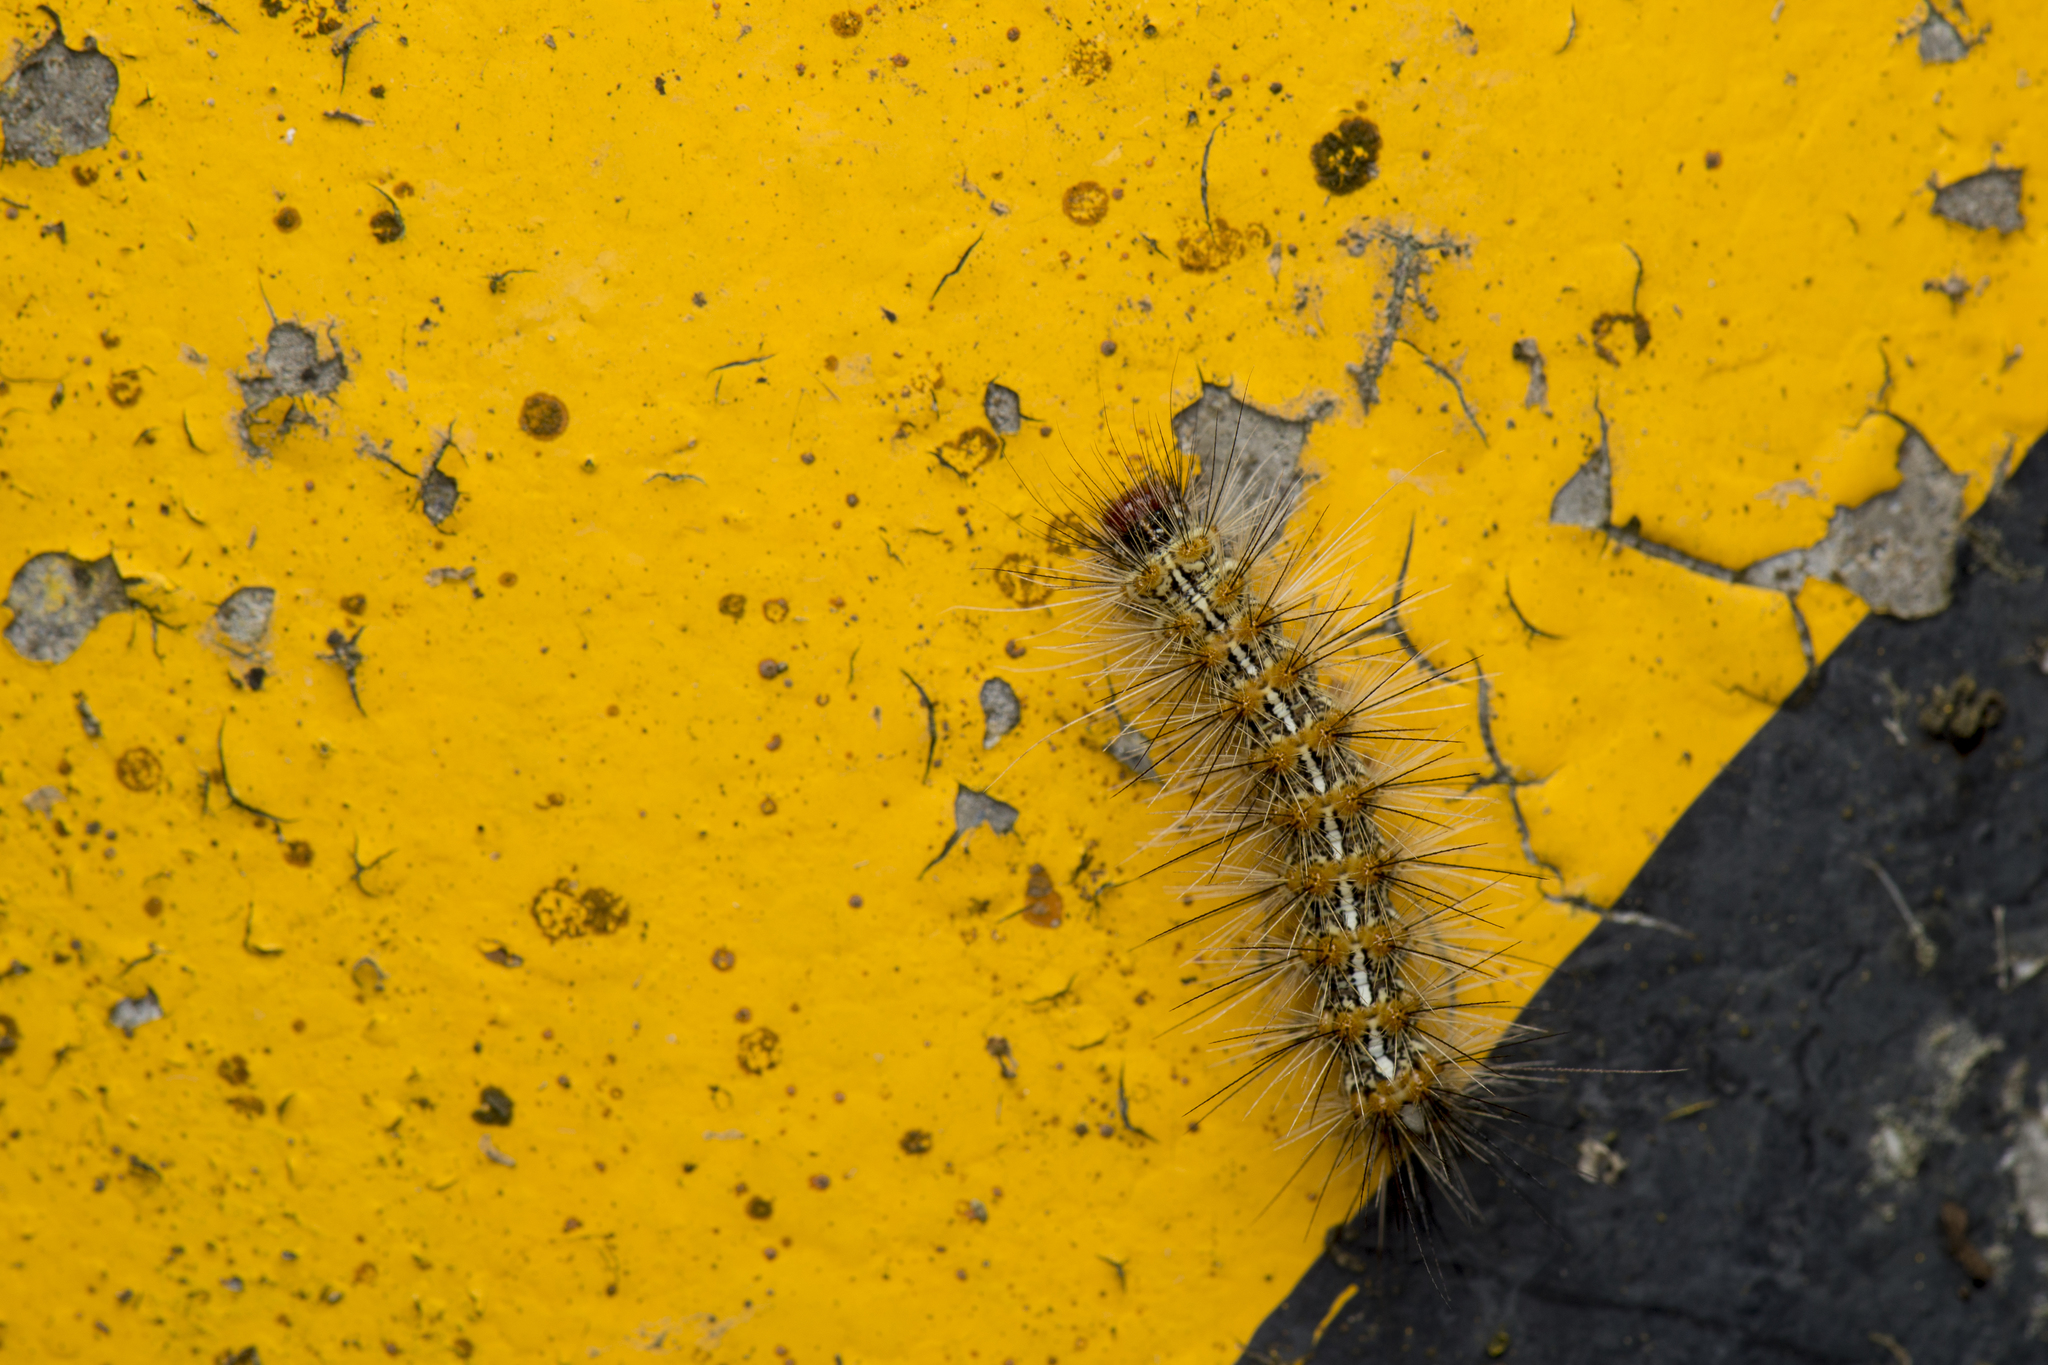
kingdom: Animalia
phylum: Arthropoda
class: Insecta
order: Lepidoptera
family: Erebidae
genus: Lemyra
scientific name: Lemyra imparilis
